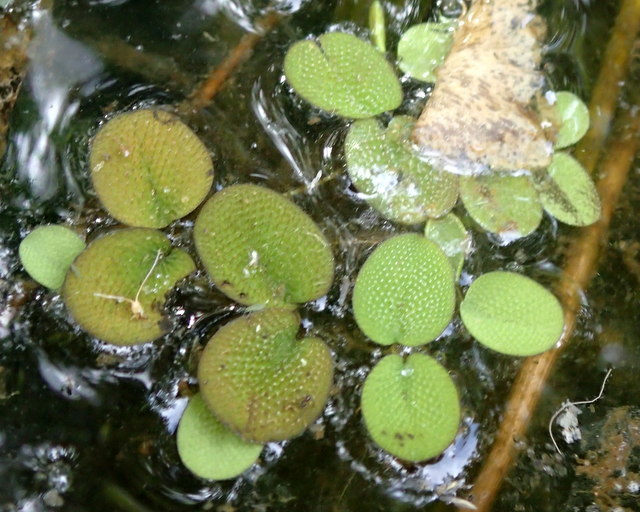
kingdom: Plantae
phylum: Tracheophyta
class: Polypodiopsida
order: Salviniales
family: Salviniaceae
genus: Salvinia
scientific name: Salvinia minima
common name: Water spangles
